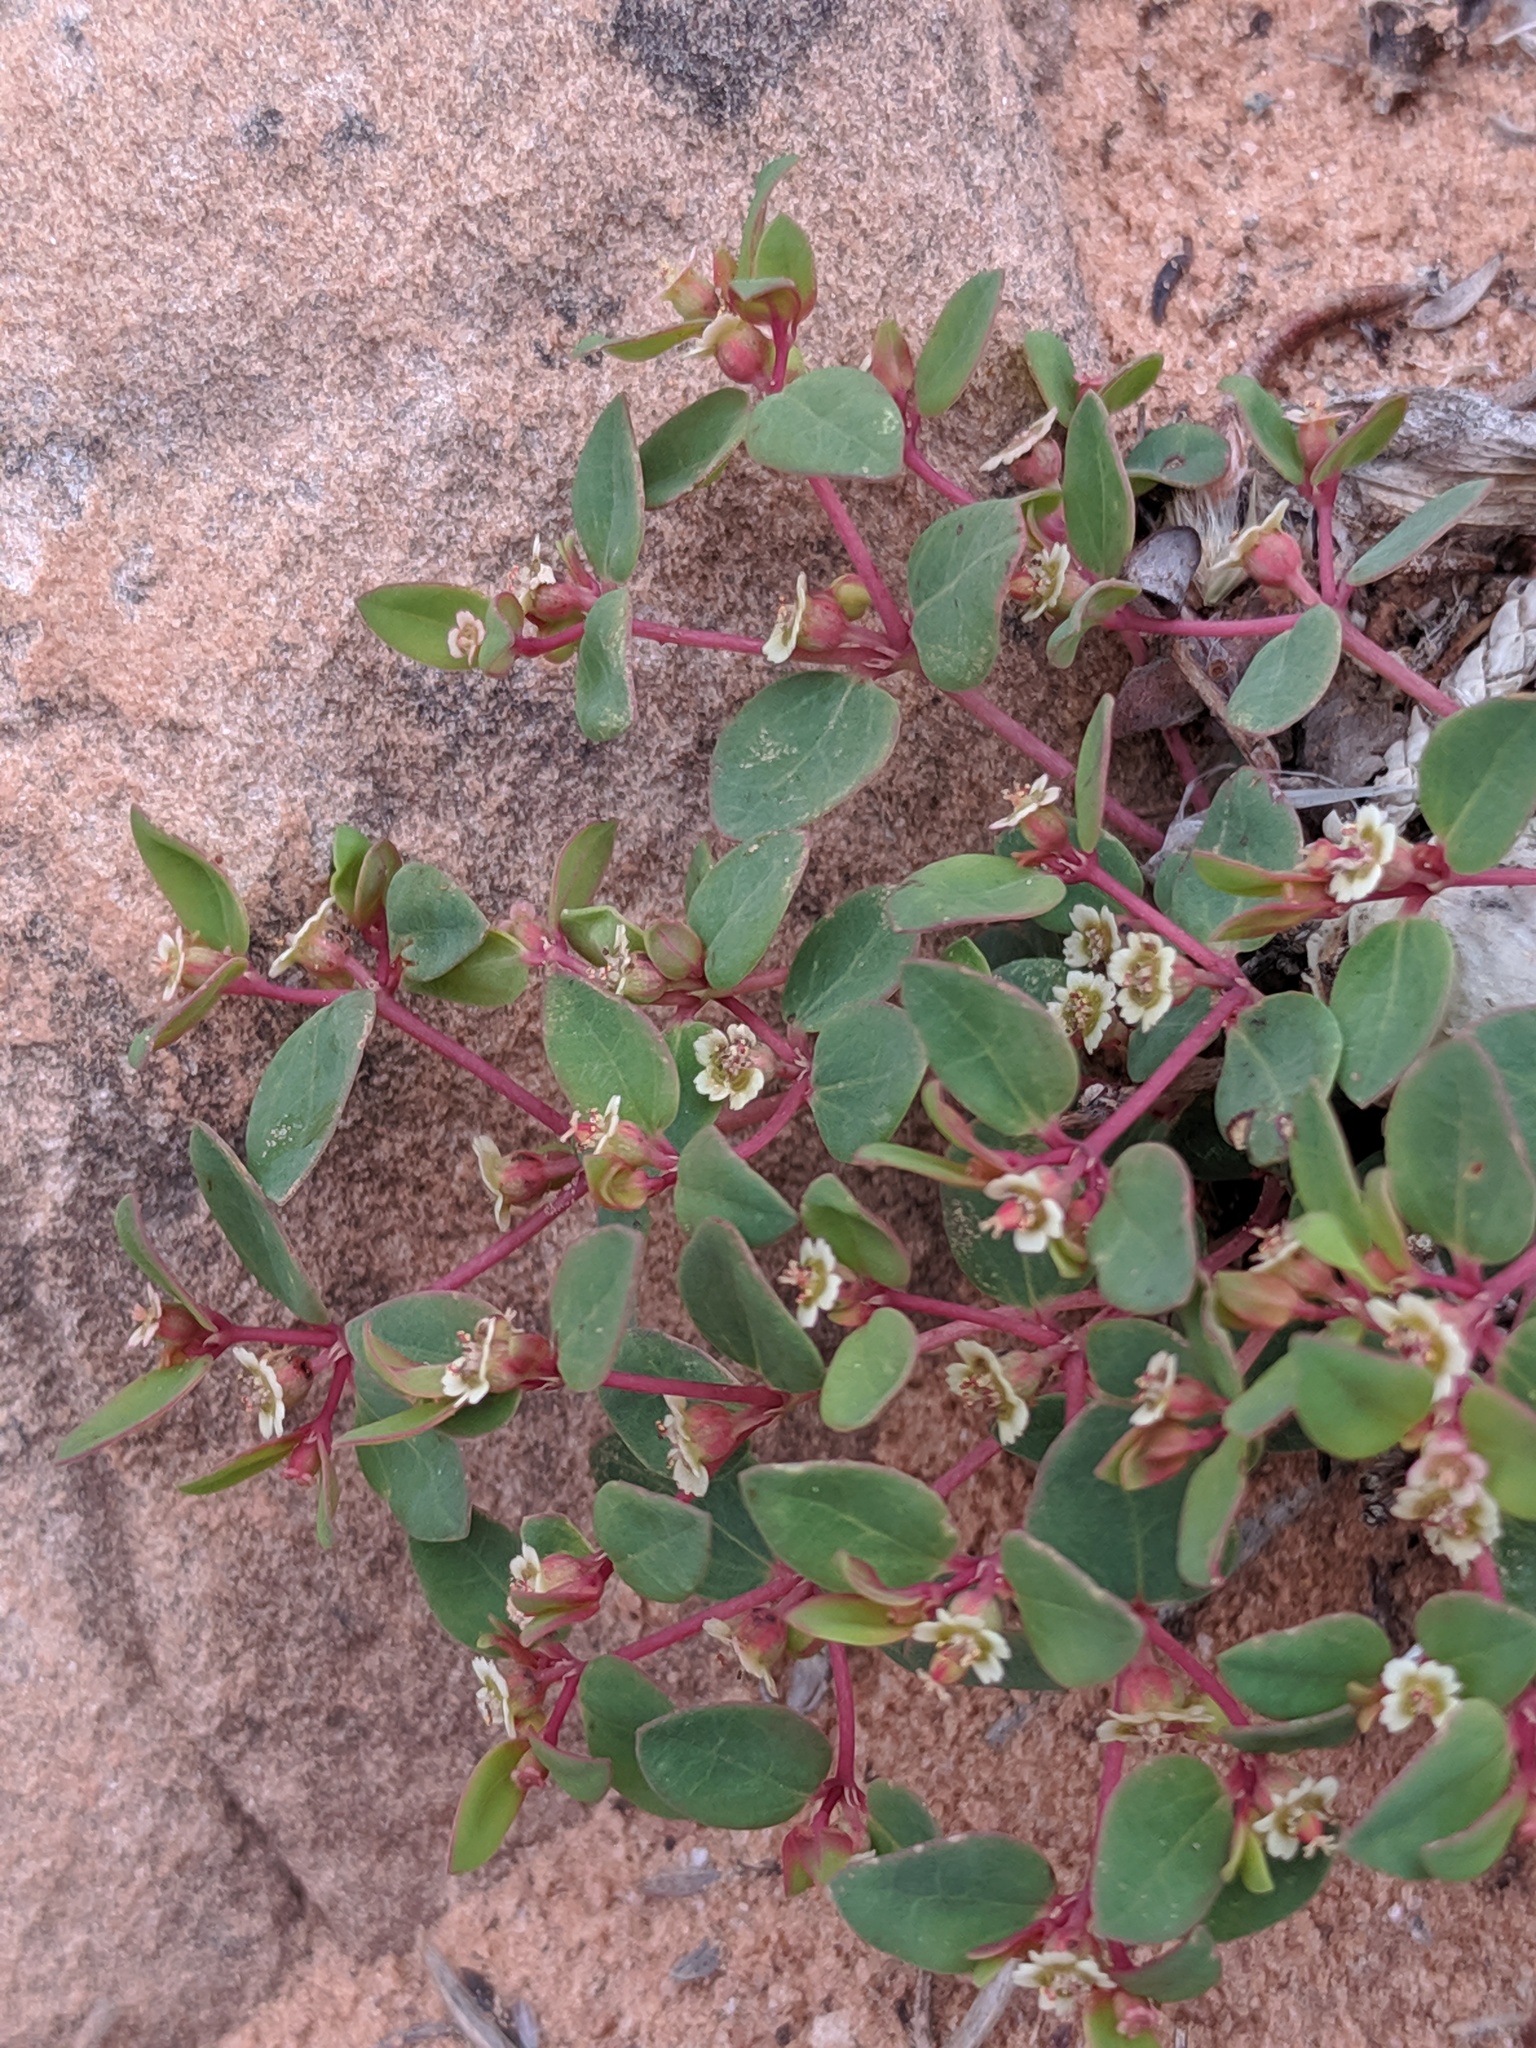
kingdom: Plantae
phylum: Tracheophyta
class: Magnoliopsida
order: Malpighiales
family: Euphorbiaceae
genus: Euphorbia
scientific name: Euphorbia fendleri
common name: Fendler's euphorbia
